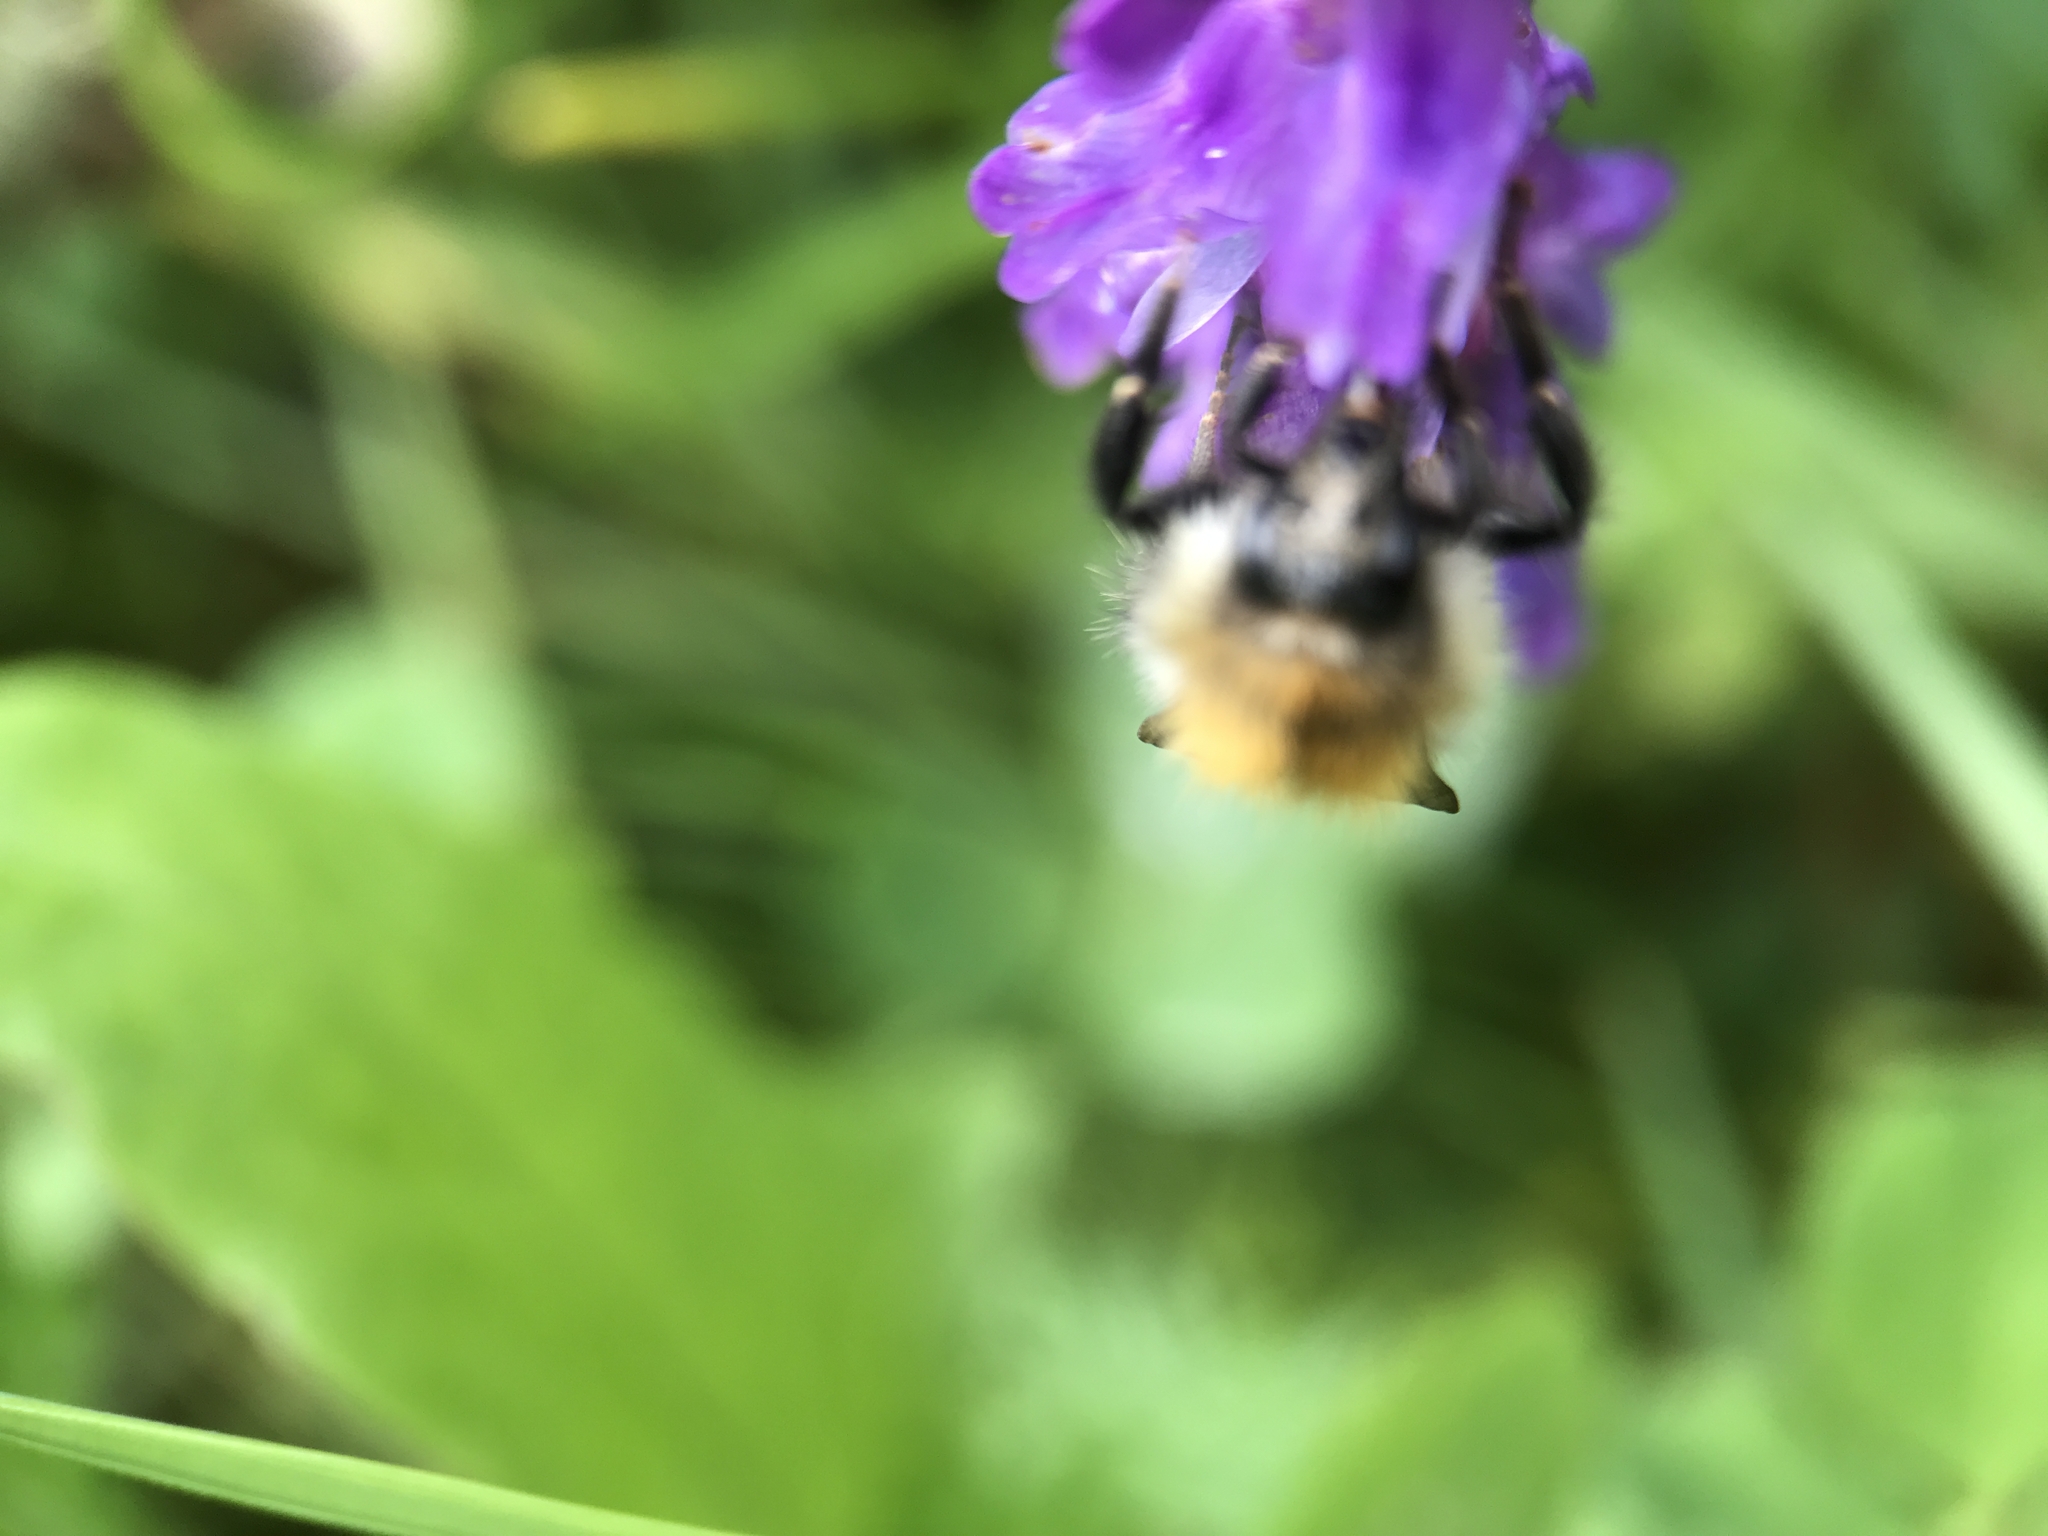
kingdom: Animalia
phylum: Arthropoda
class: Insecta
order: Hymenoptera
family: Apidae
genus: Bombus
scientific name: Bombus pascuorum
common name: Common carder bee
